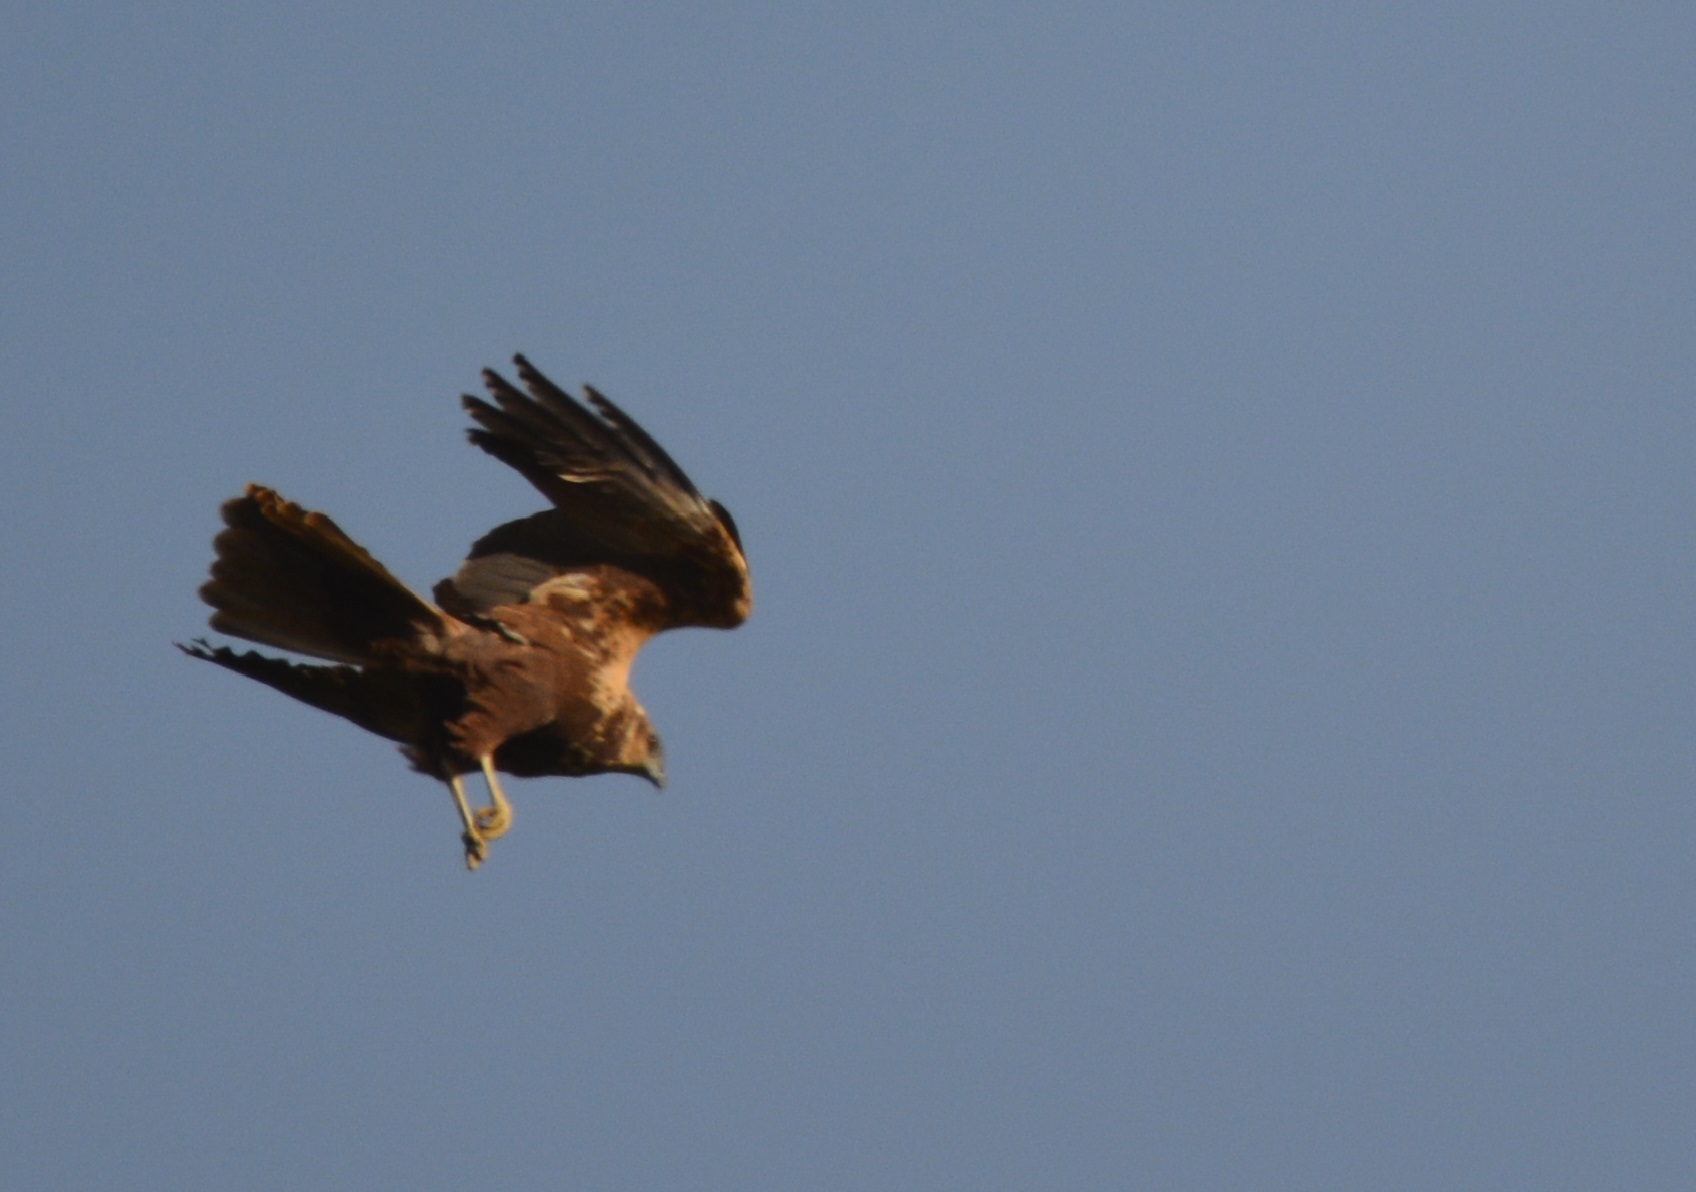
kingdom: Animalia
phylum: Chordata
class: Aves
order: Accipitriformes
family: Accipitridae
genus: Circus
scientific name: Circus aeruginosus
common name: Western marsh harrier
